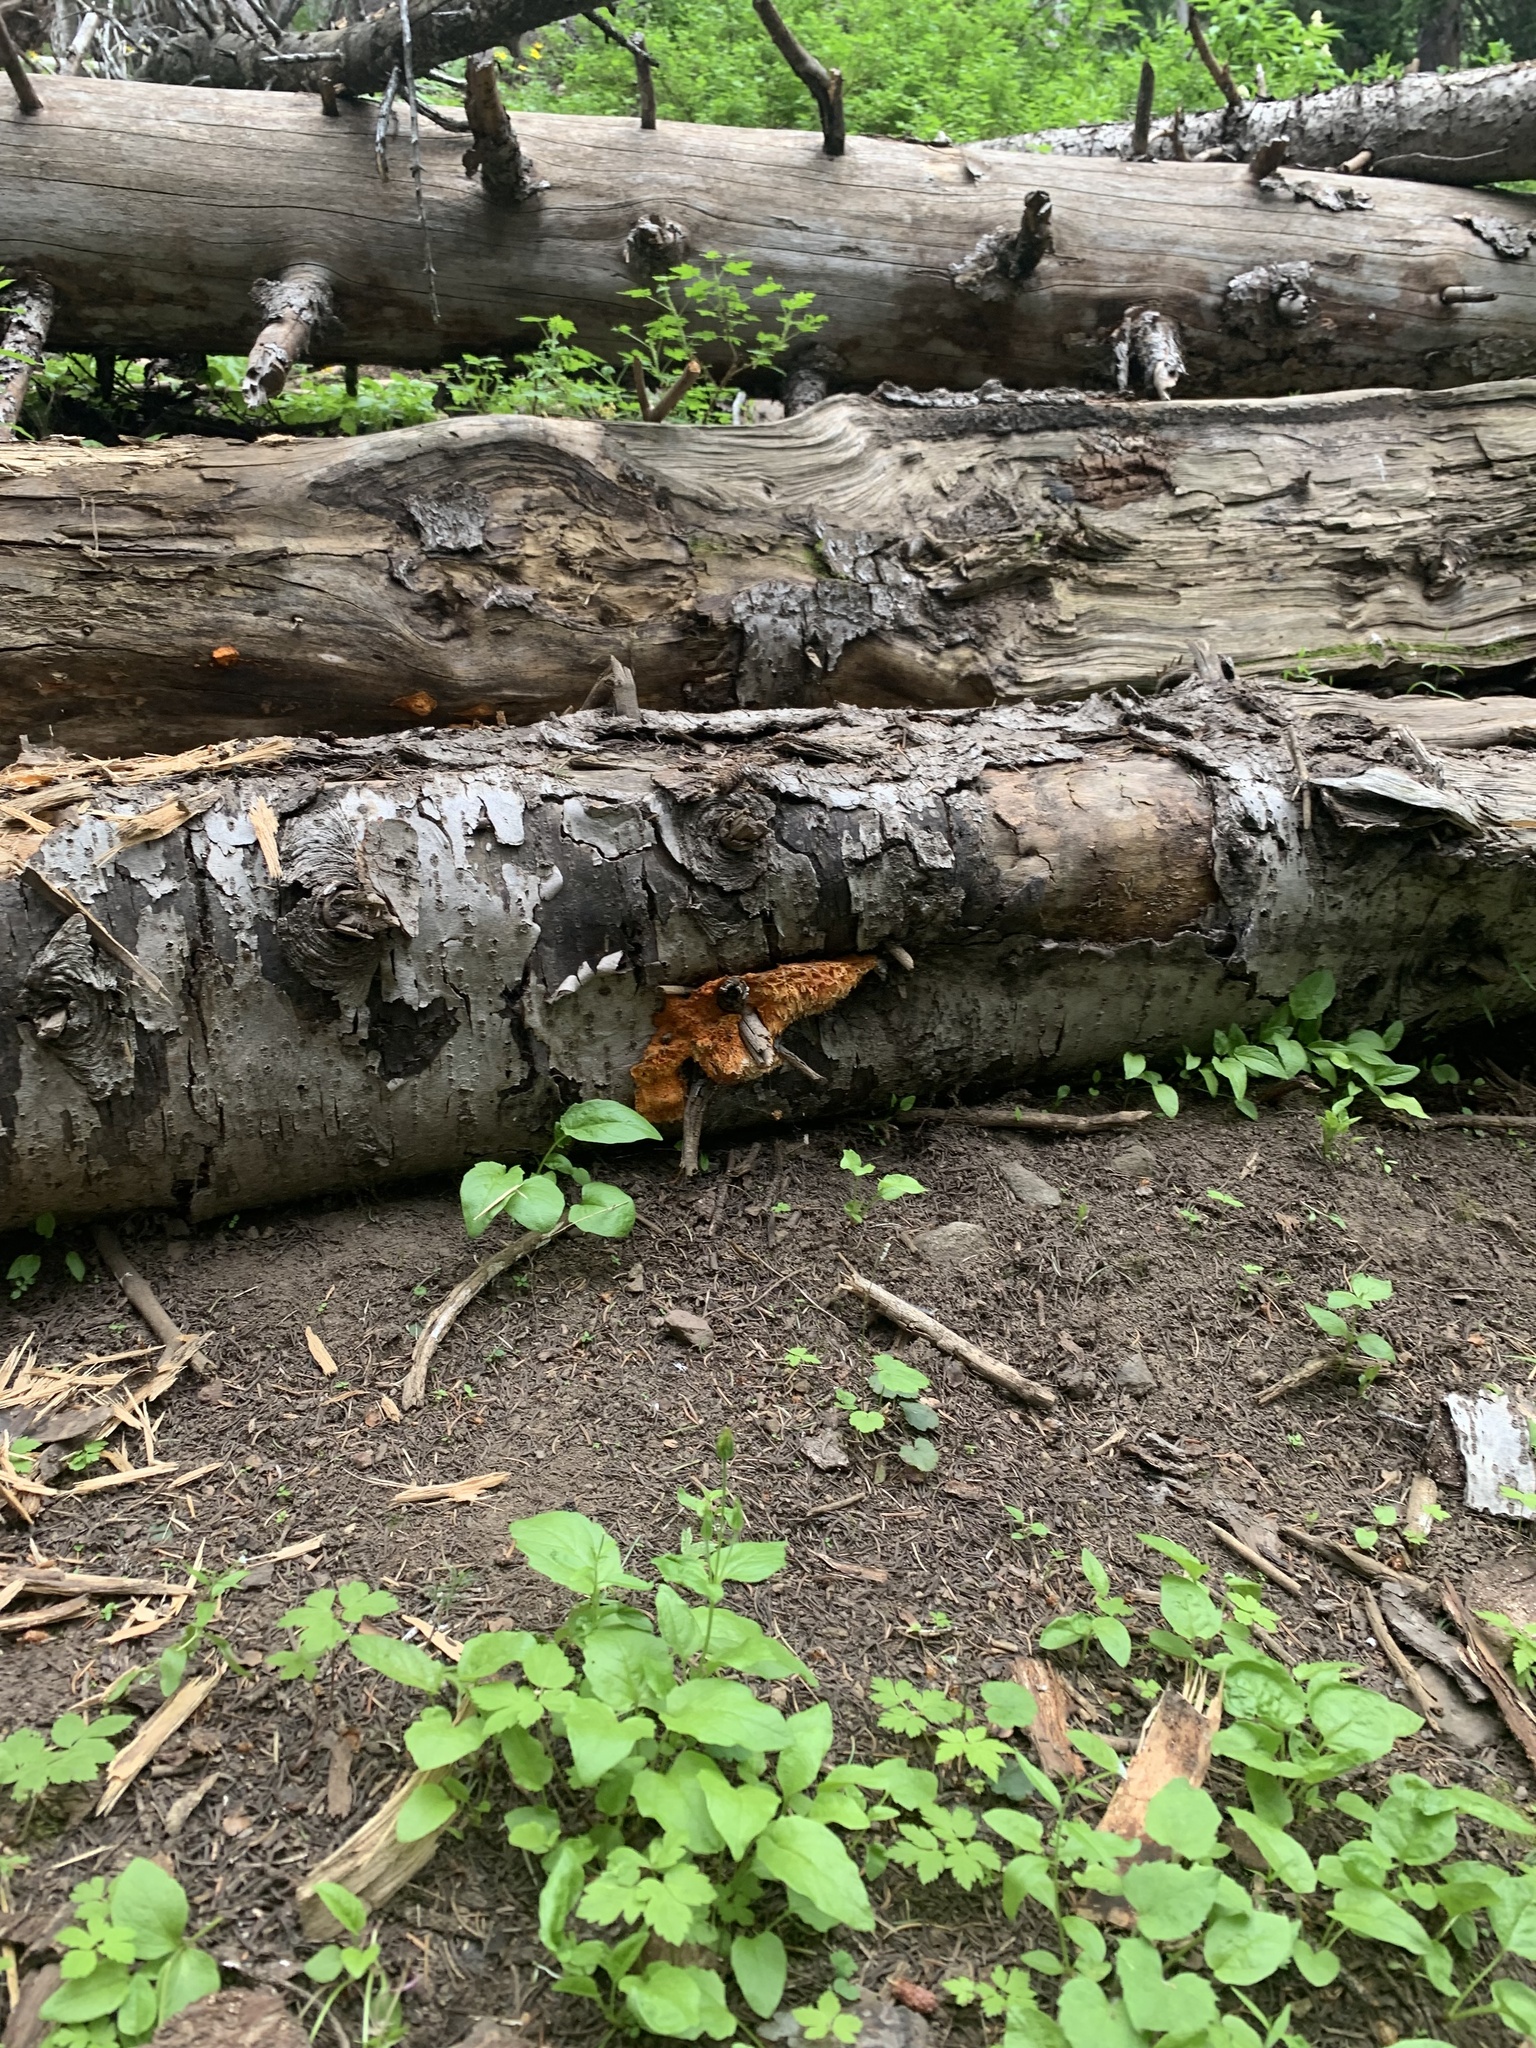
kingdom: Fungi
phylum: Basidiomycota
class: Agaricomycetes
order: Polyporales
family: Pycnoporellaceae
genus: Pycnoporellus
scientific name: Pycnoporellus alboluteus
